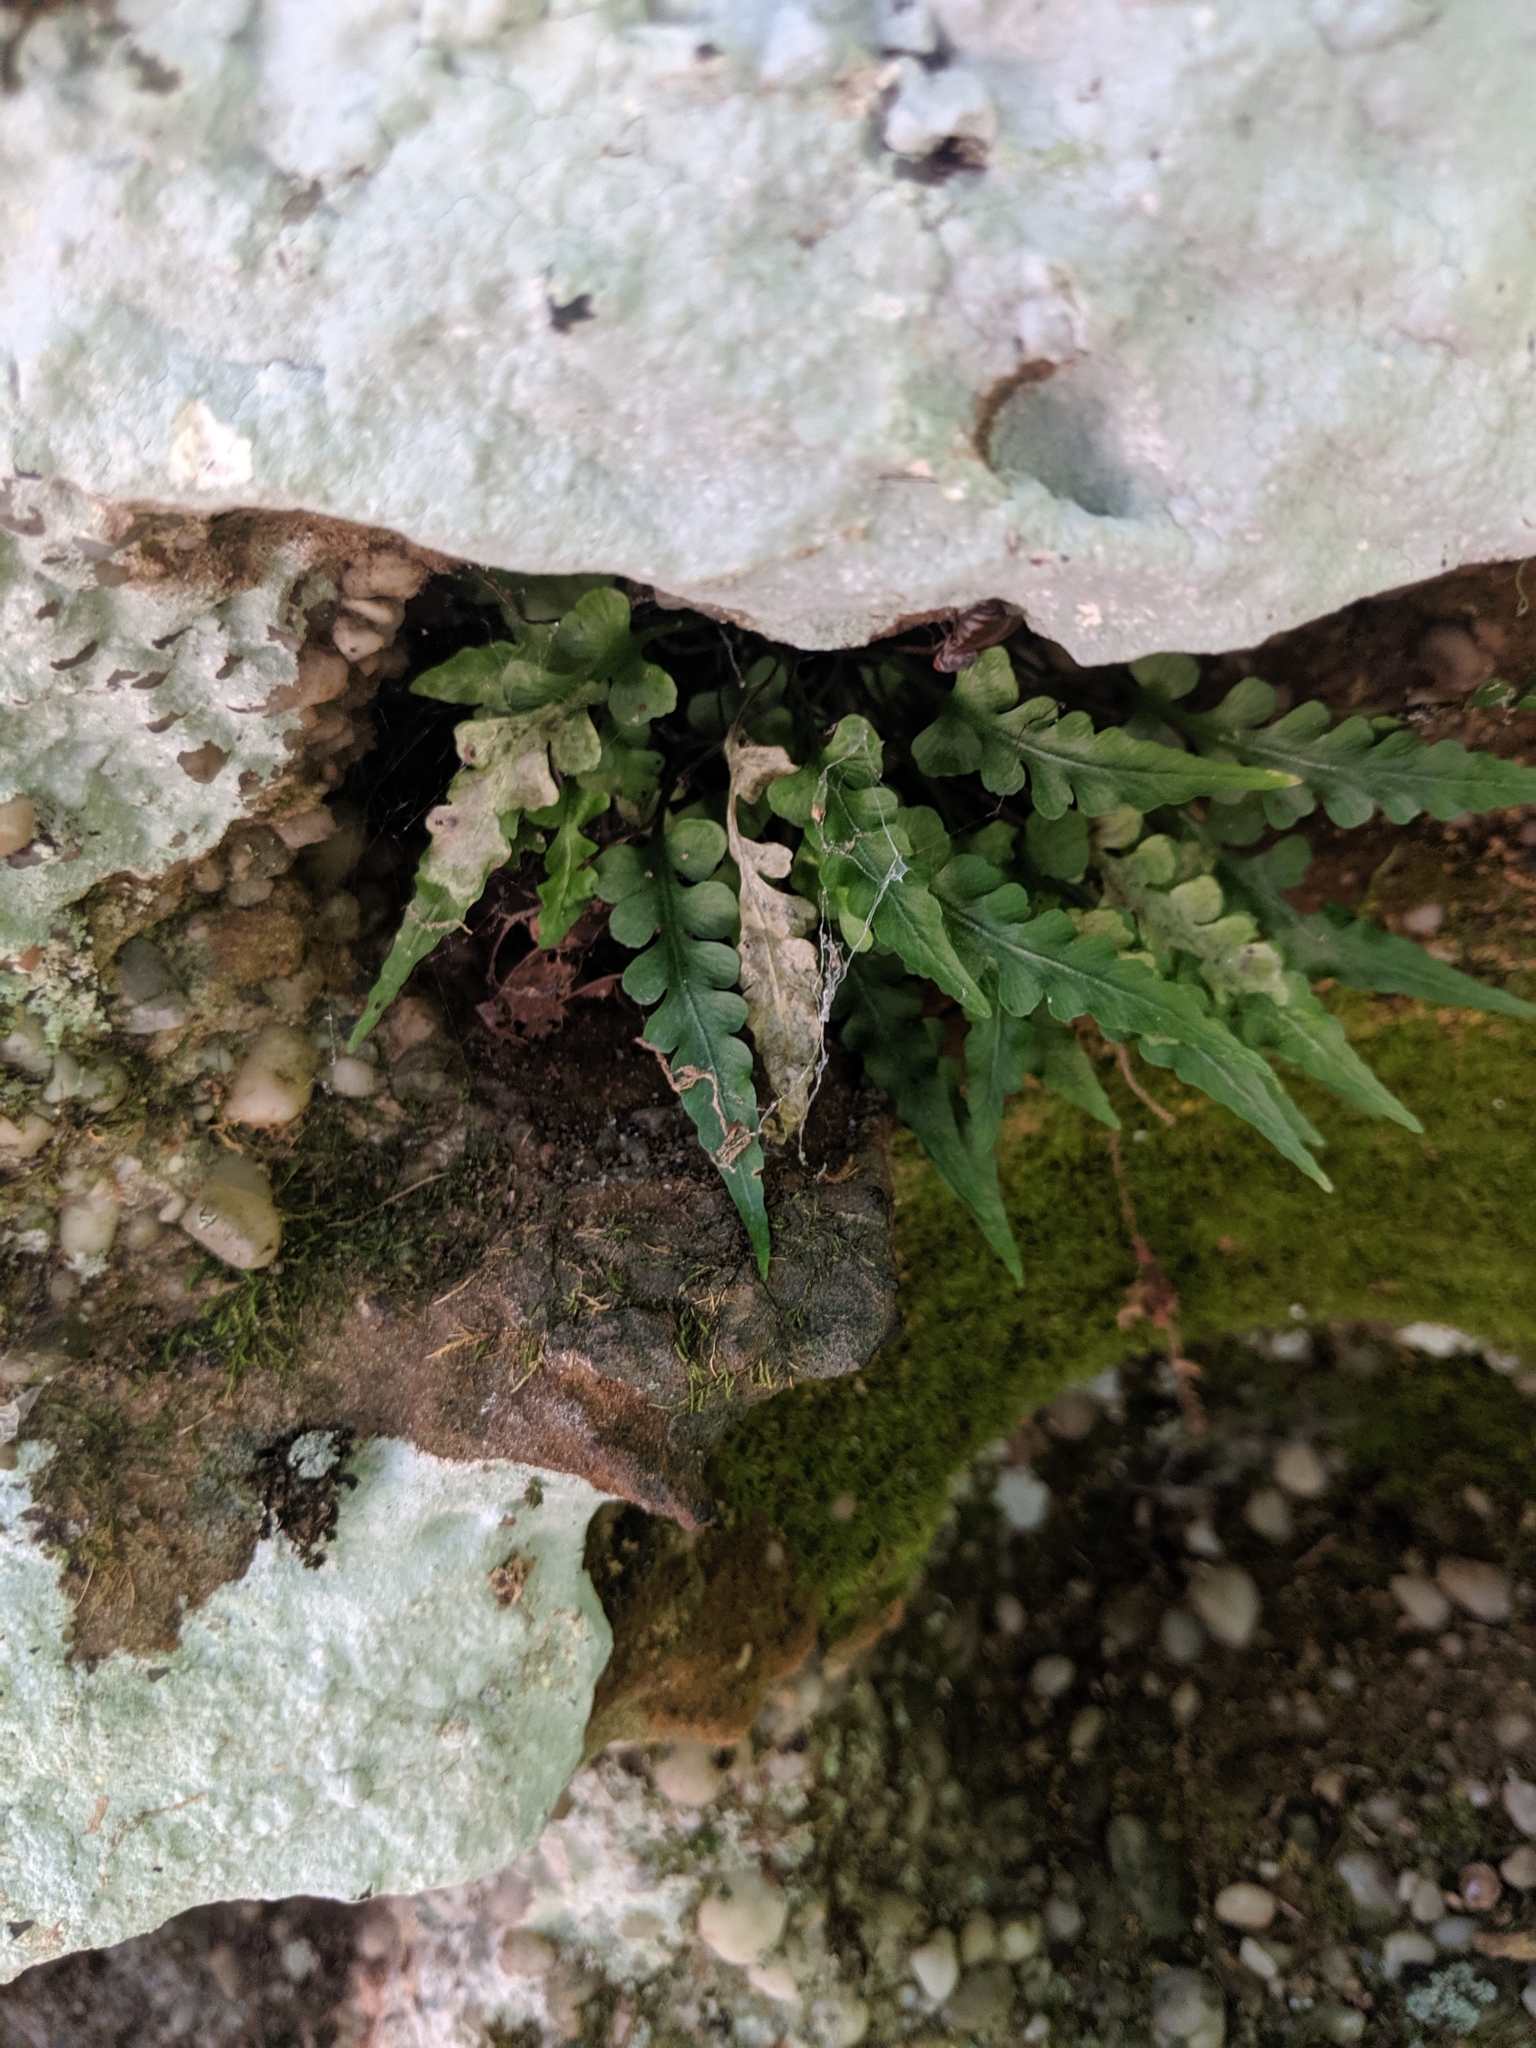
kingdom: Plantae
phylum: Tracheophyta
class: Polypodiopsida
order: Polypodiales
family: Aspleniaceae
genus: Asplenium
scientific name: Asplenium pinnatifidum
